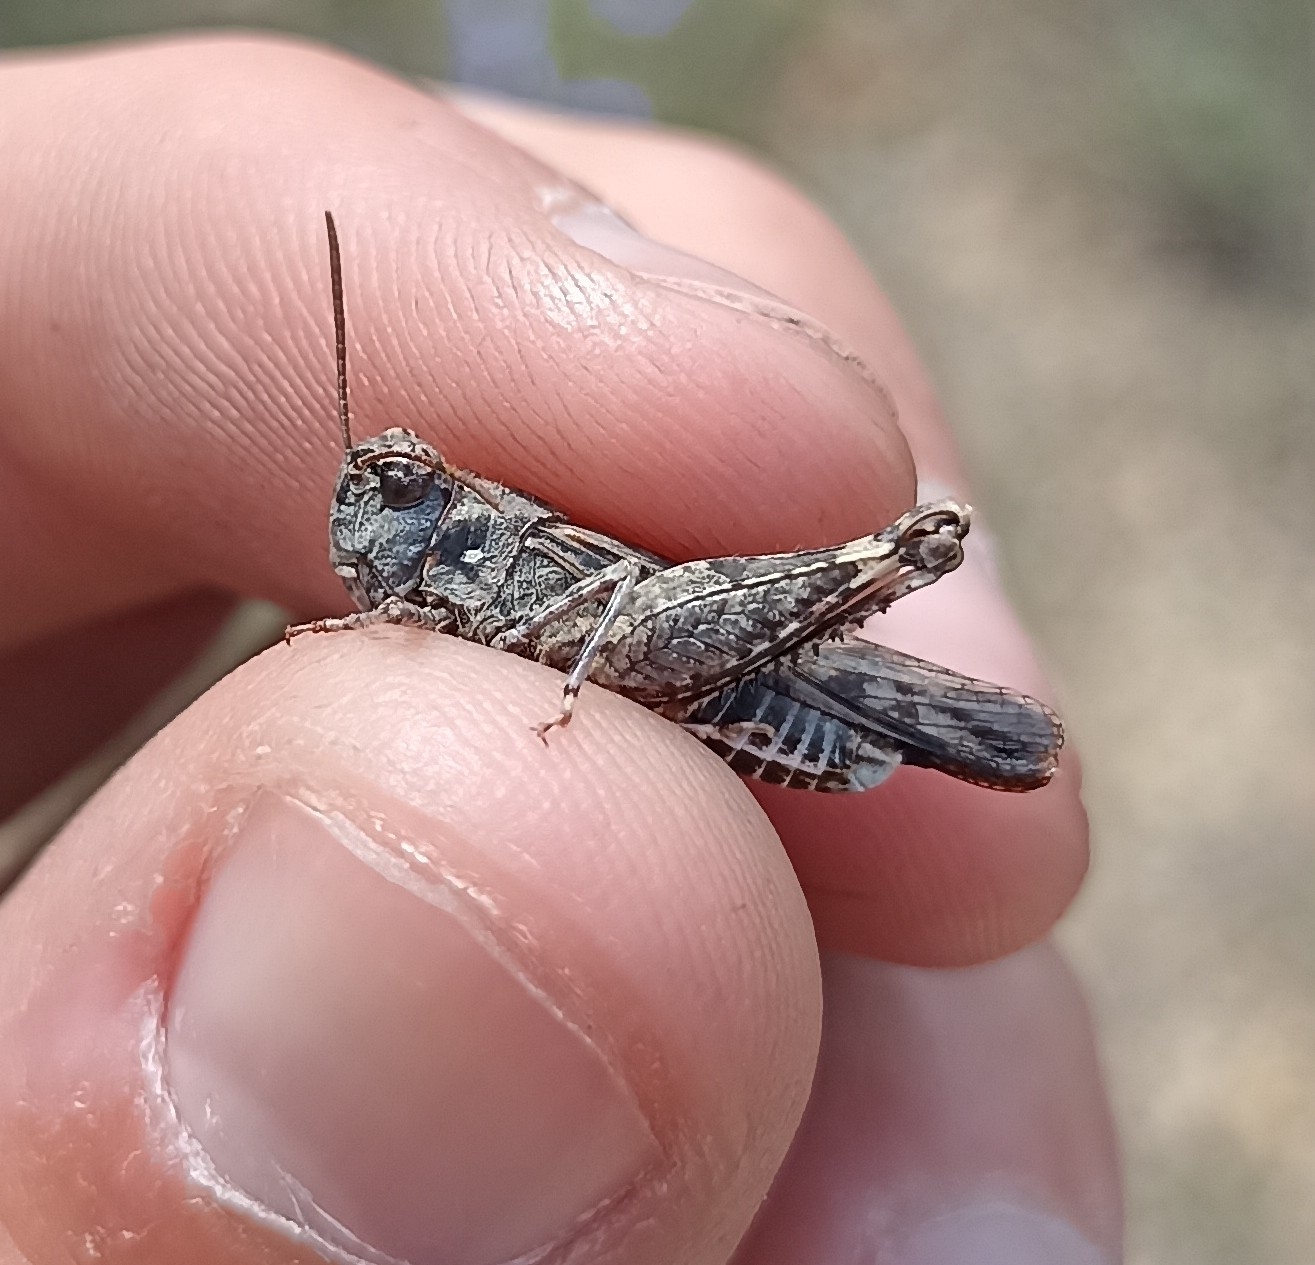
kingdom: Animalia
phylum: Arthropoda
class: Insecta
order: Orthoptera
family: Acrididae
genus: Acrotylus
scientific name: Acrotylus fischeri
